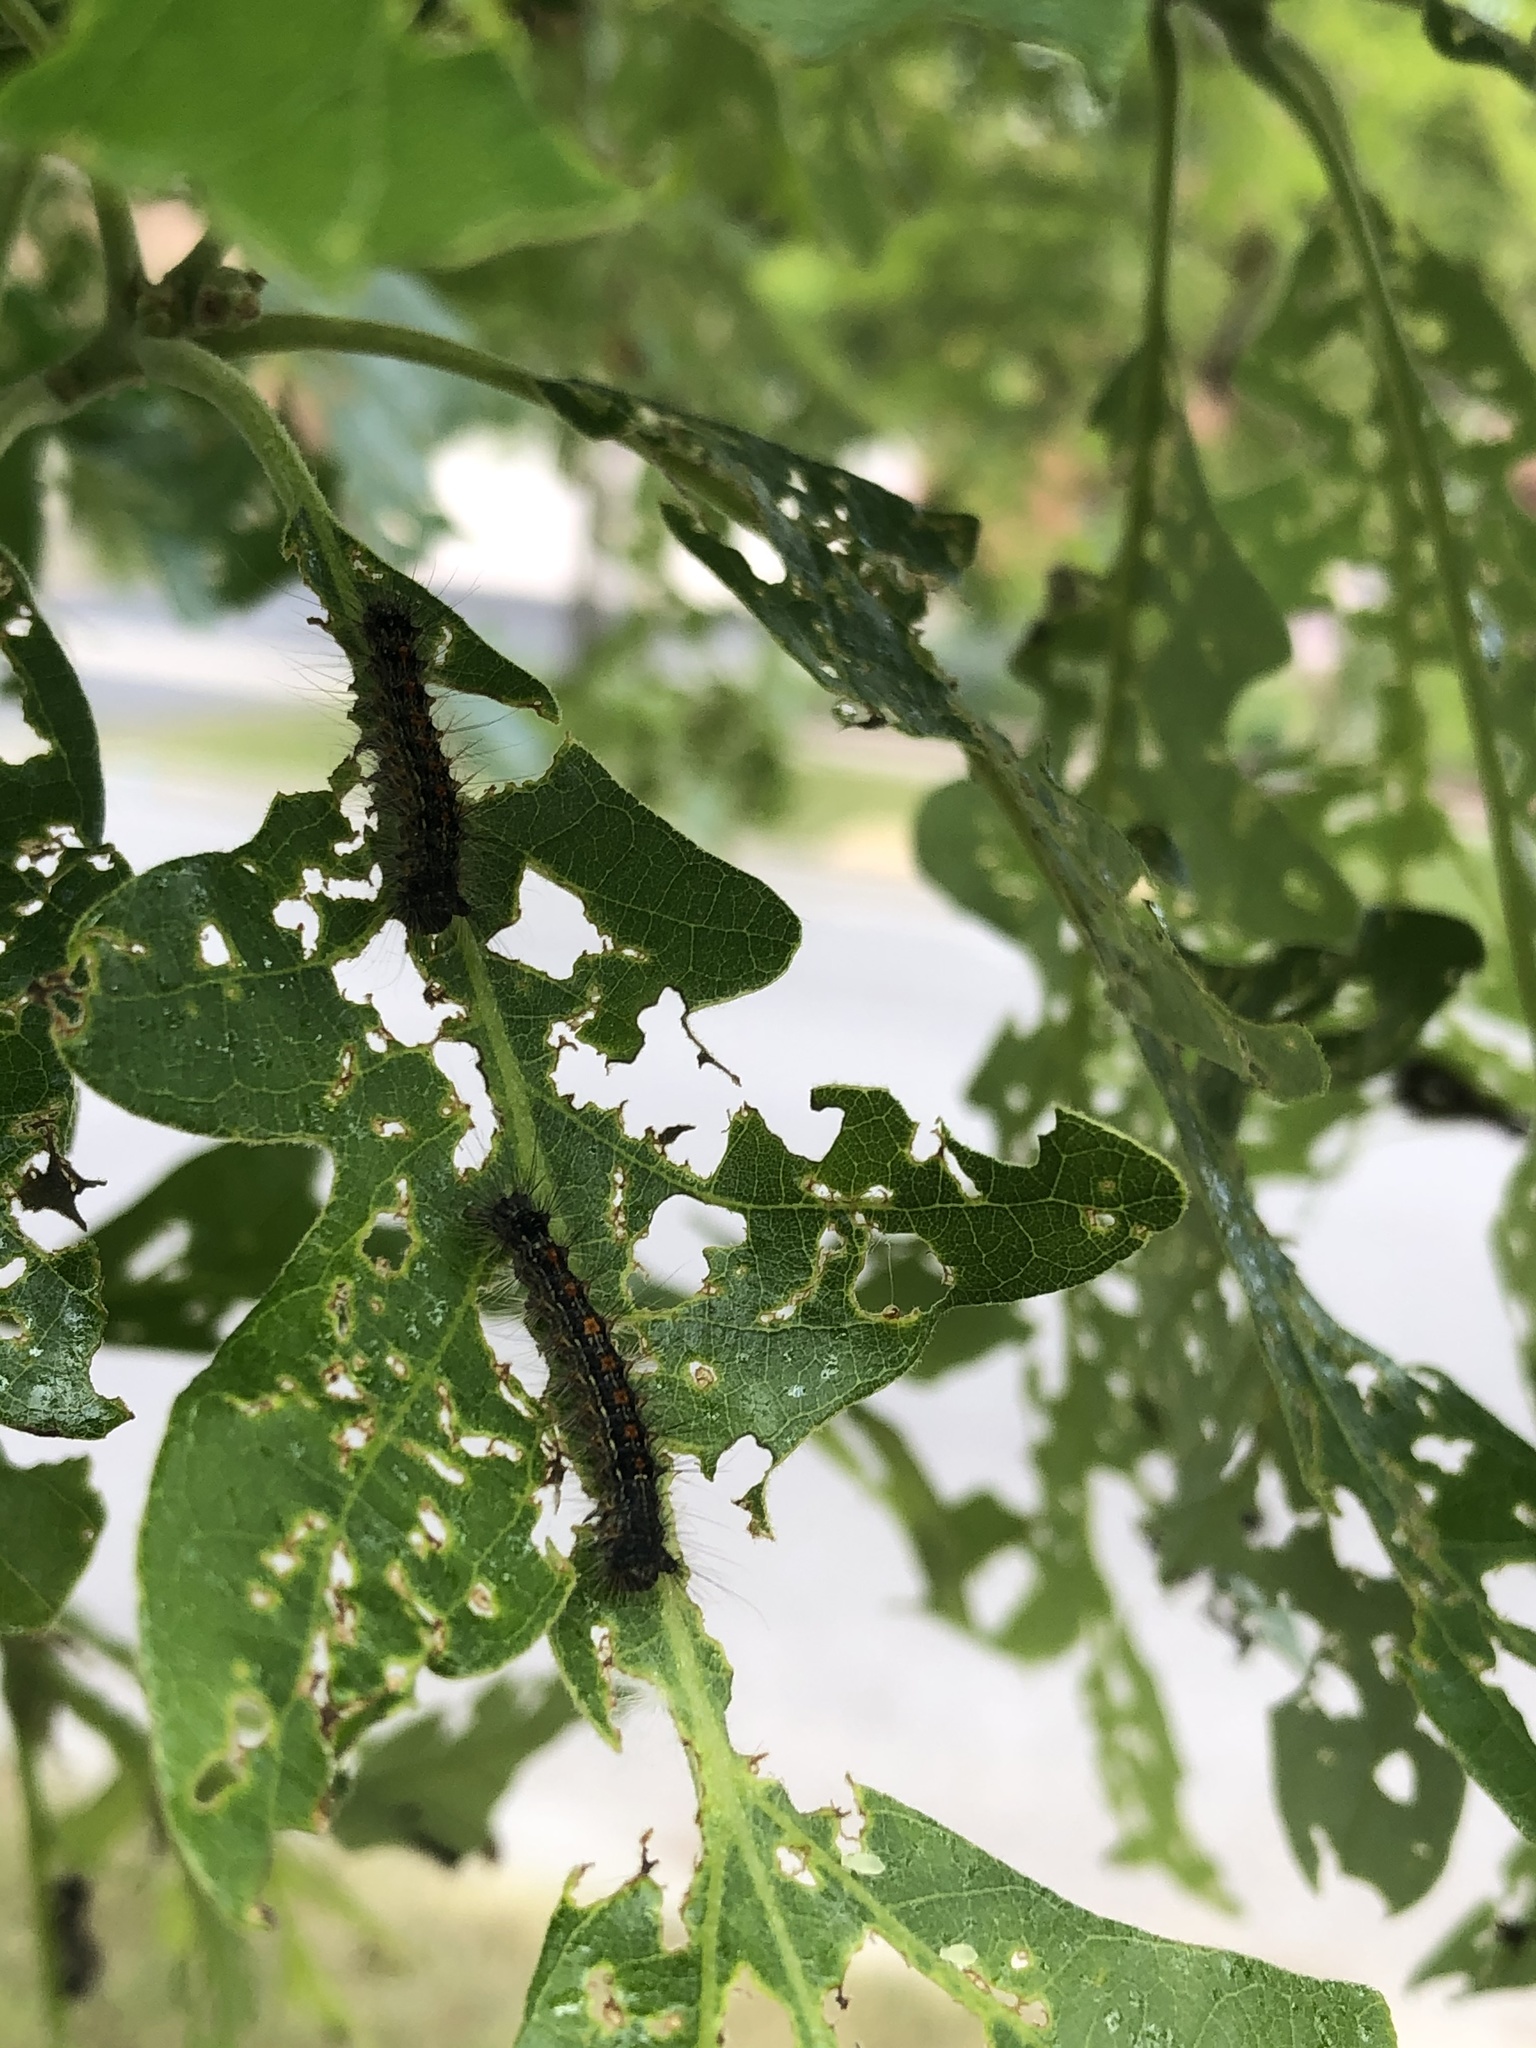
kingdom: Animalia
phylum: Arthropoda
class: Insecta
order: Lepidoptera
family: Erebidae
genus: Lymantria
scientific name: Lymantria dispar
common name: Gypsy moth
